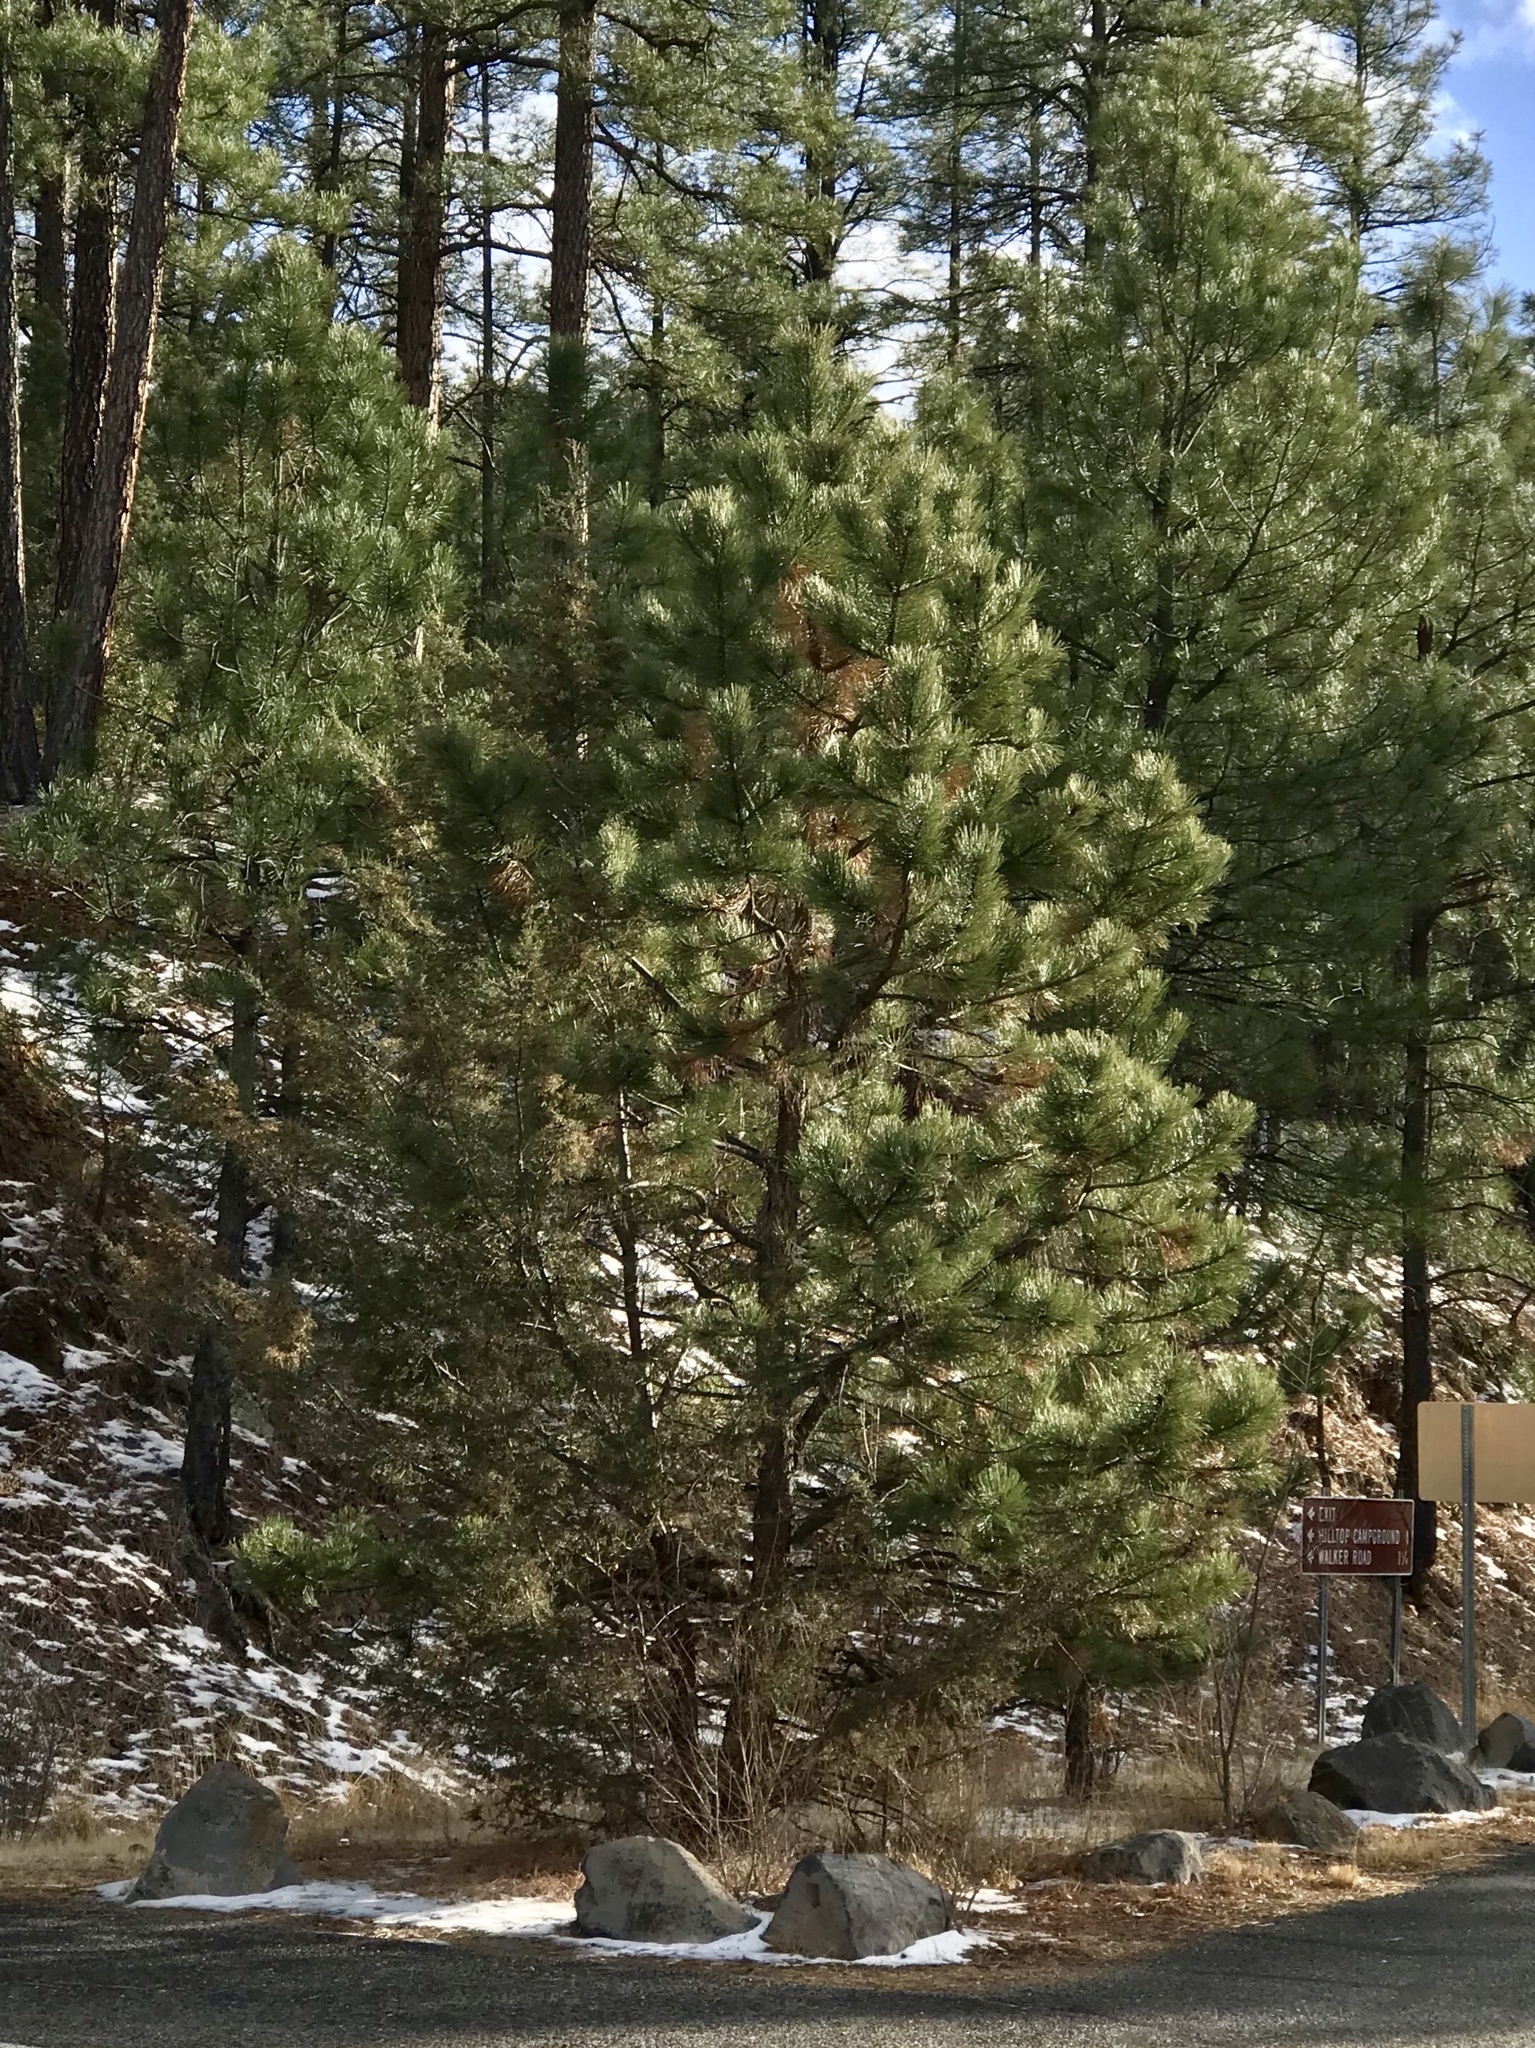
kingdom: Plantae
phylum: Tracheophyta
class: Pinopsida
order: Pinales
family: Pinaceae
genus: Pinus
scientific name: Pinus ponderosa
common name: Western yellow-pine
